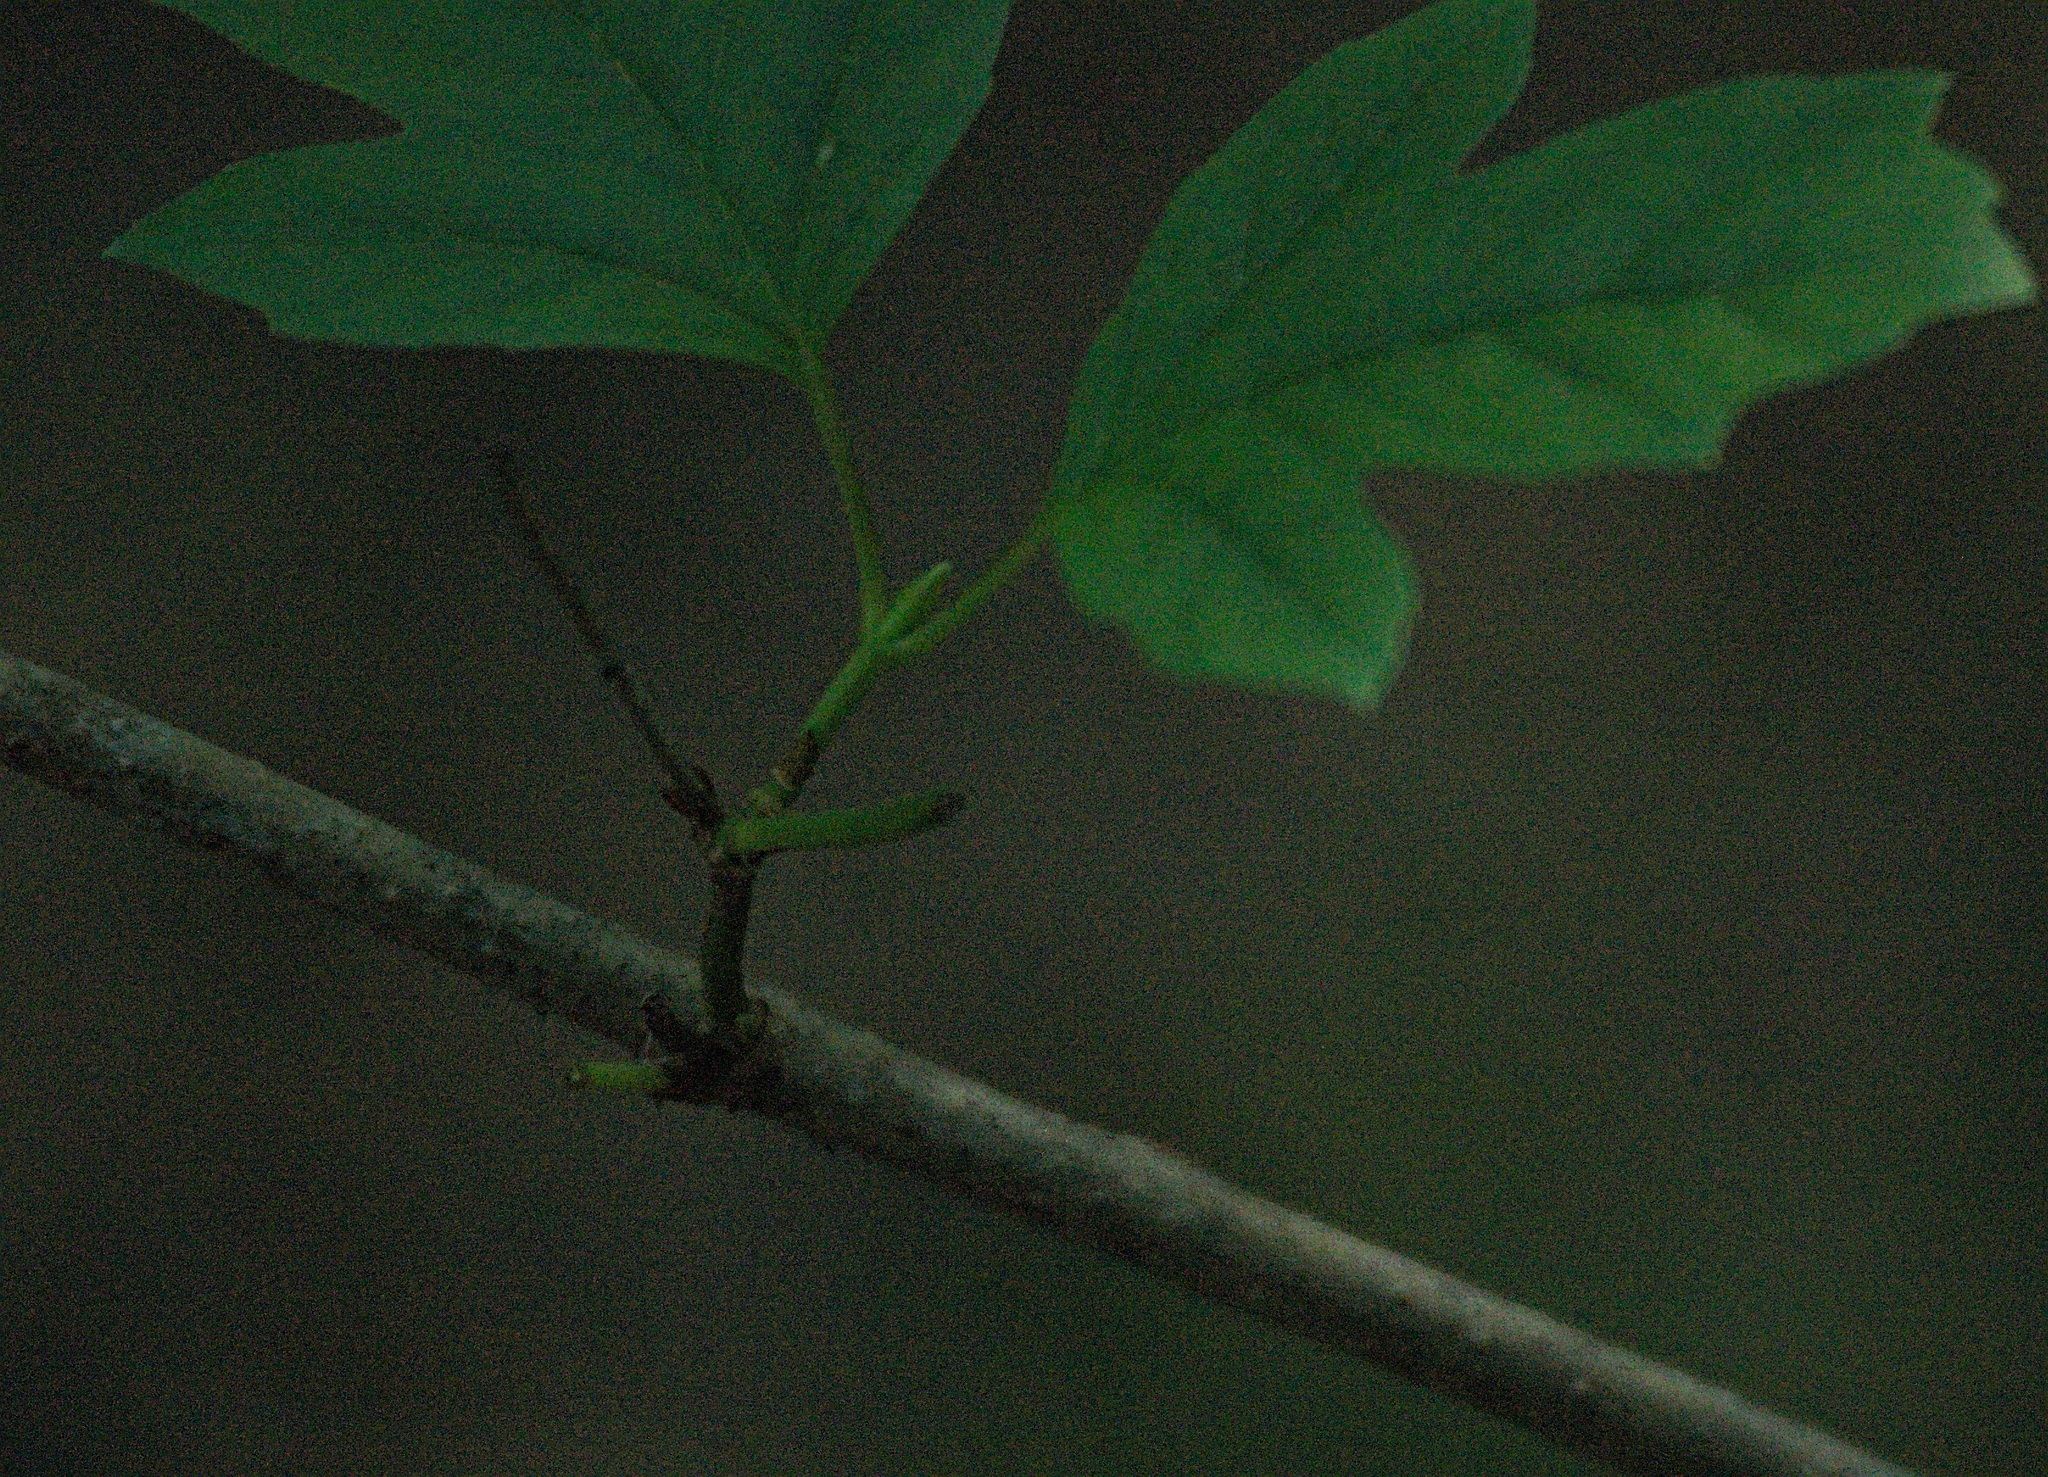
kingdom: Plantae
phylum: Tracheophyta
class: Magnoliopsida
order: Dipsacales
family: Viburnaceae
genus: Viburnum
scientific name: Viburnum opulus
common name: Guelder-rose
